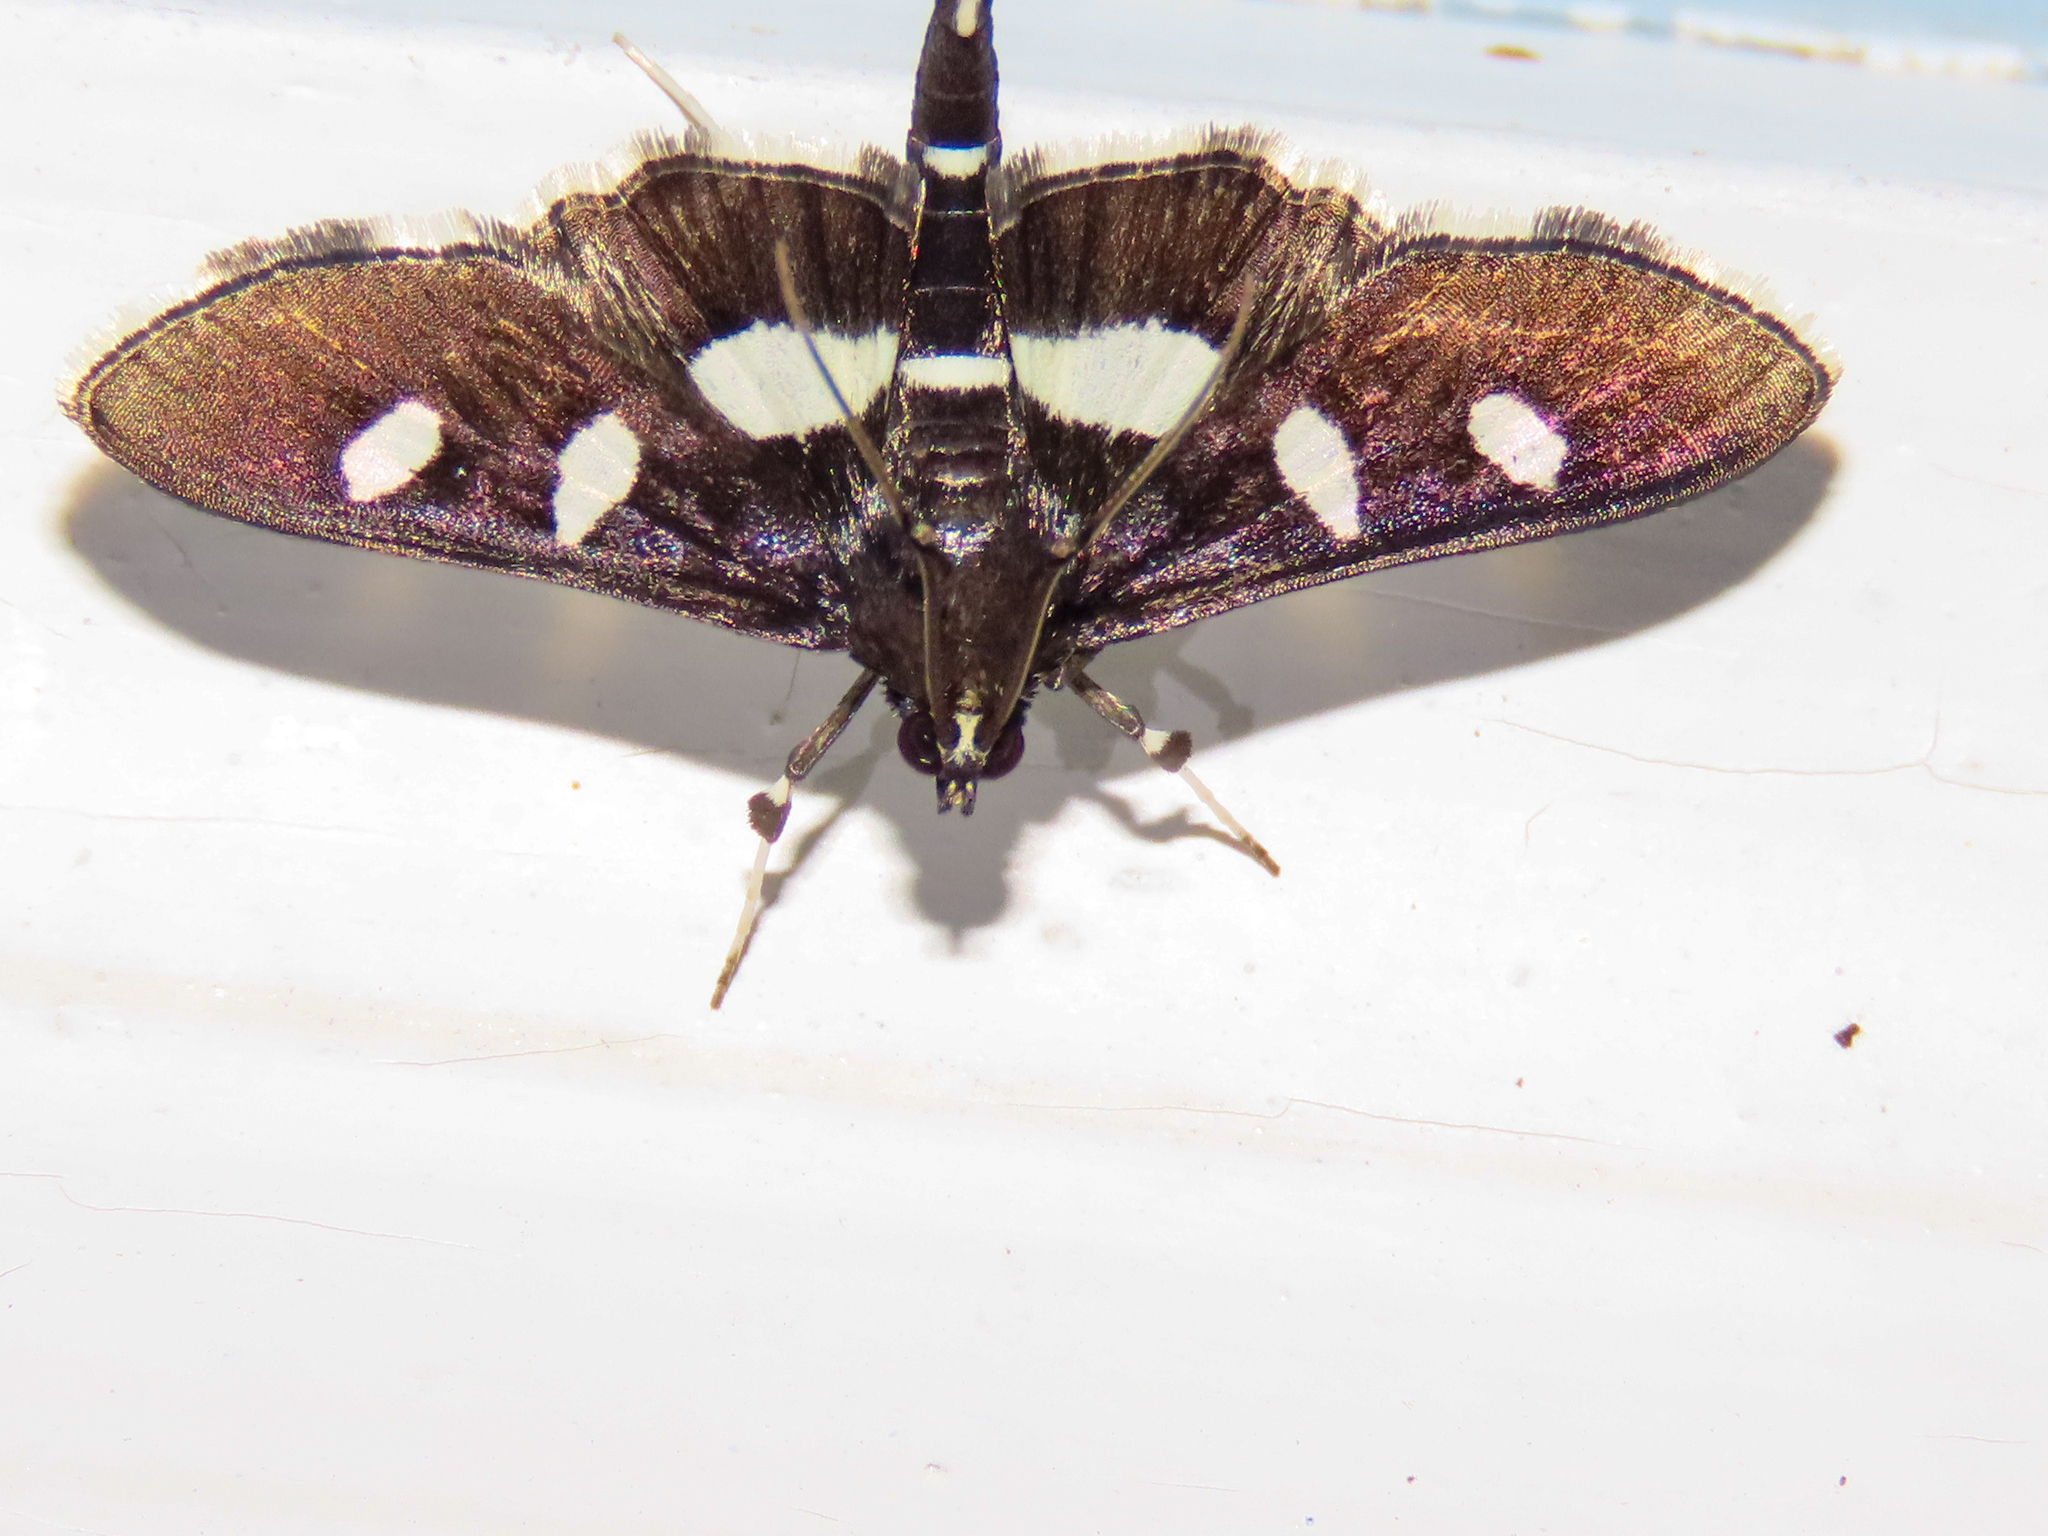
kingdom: Animalia
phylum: Arthropoda
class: Insecta
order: Lepidoptera
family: Crambidae
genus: Desmia
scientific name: Desmia
